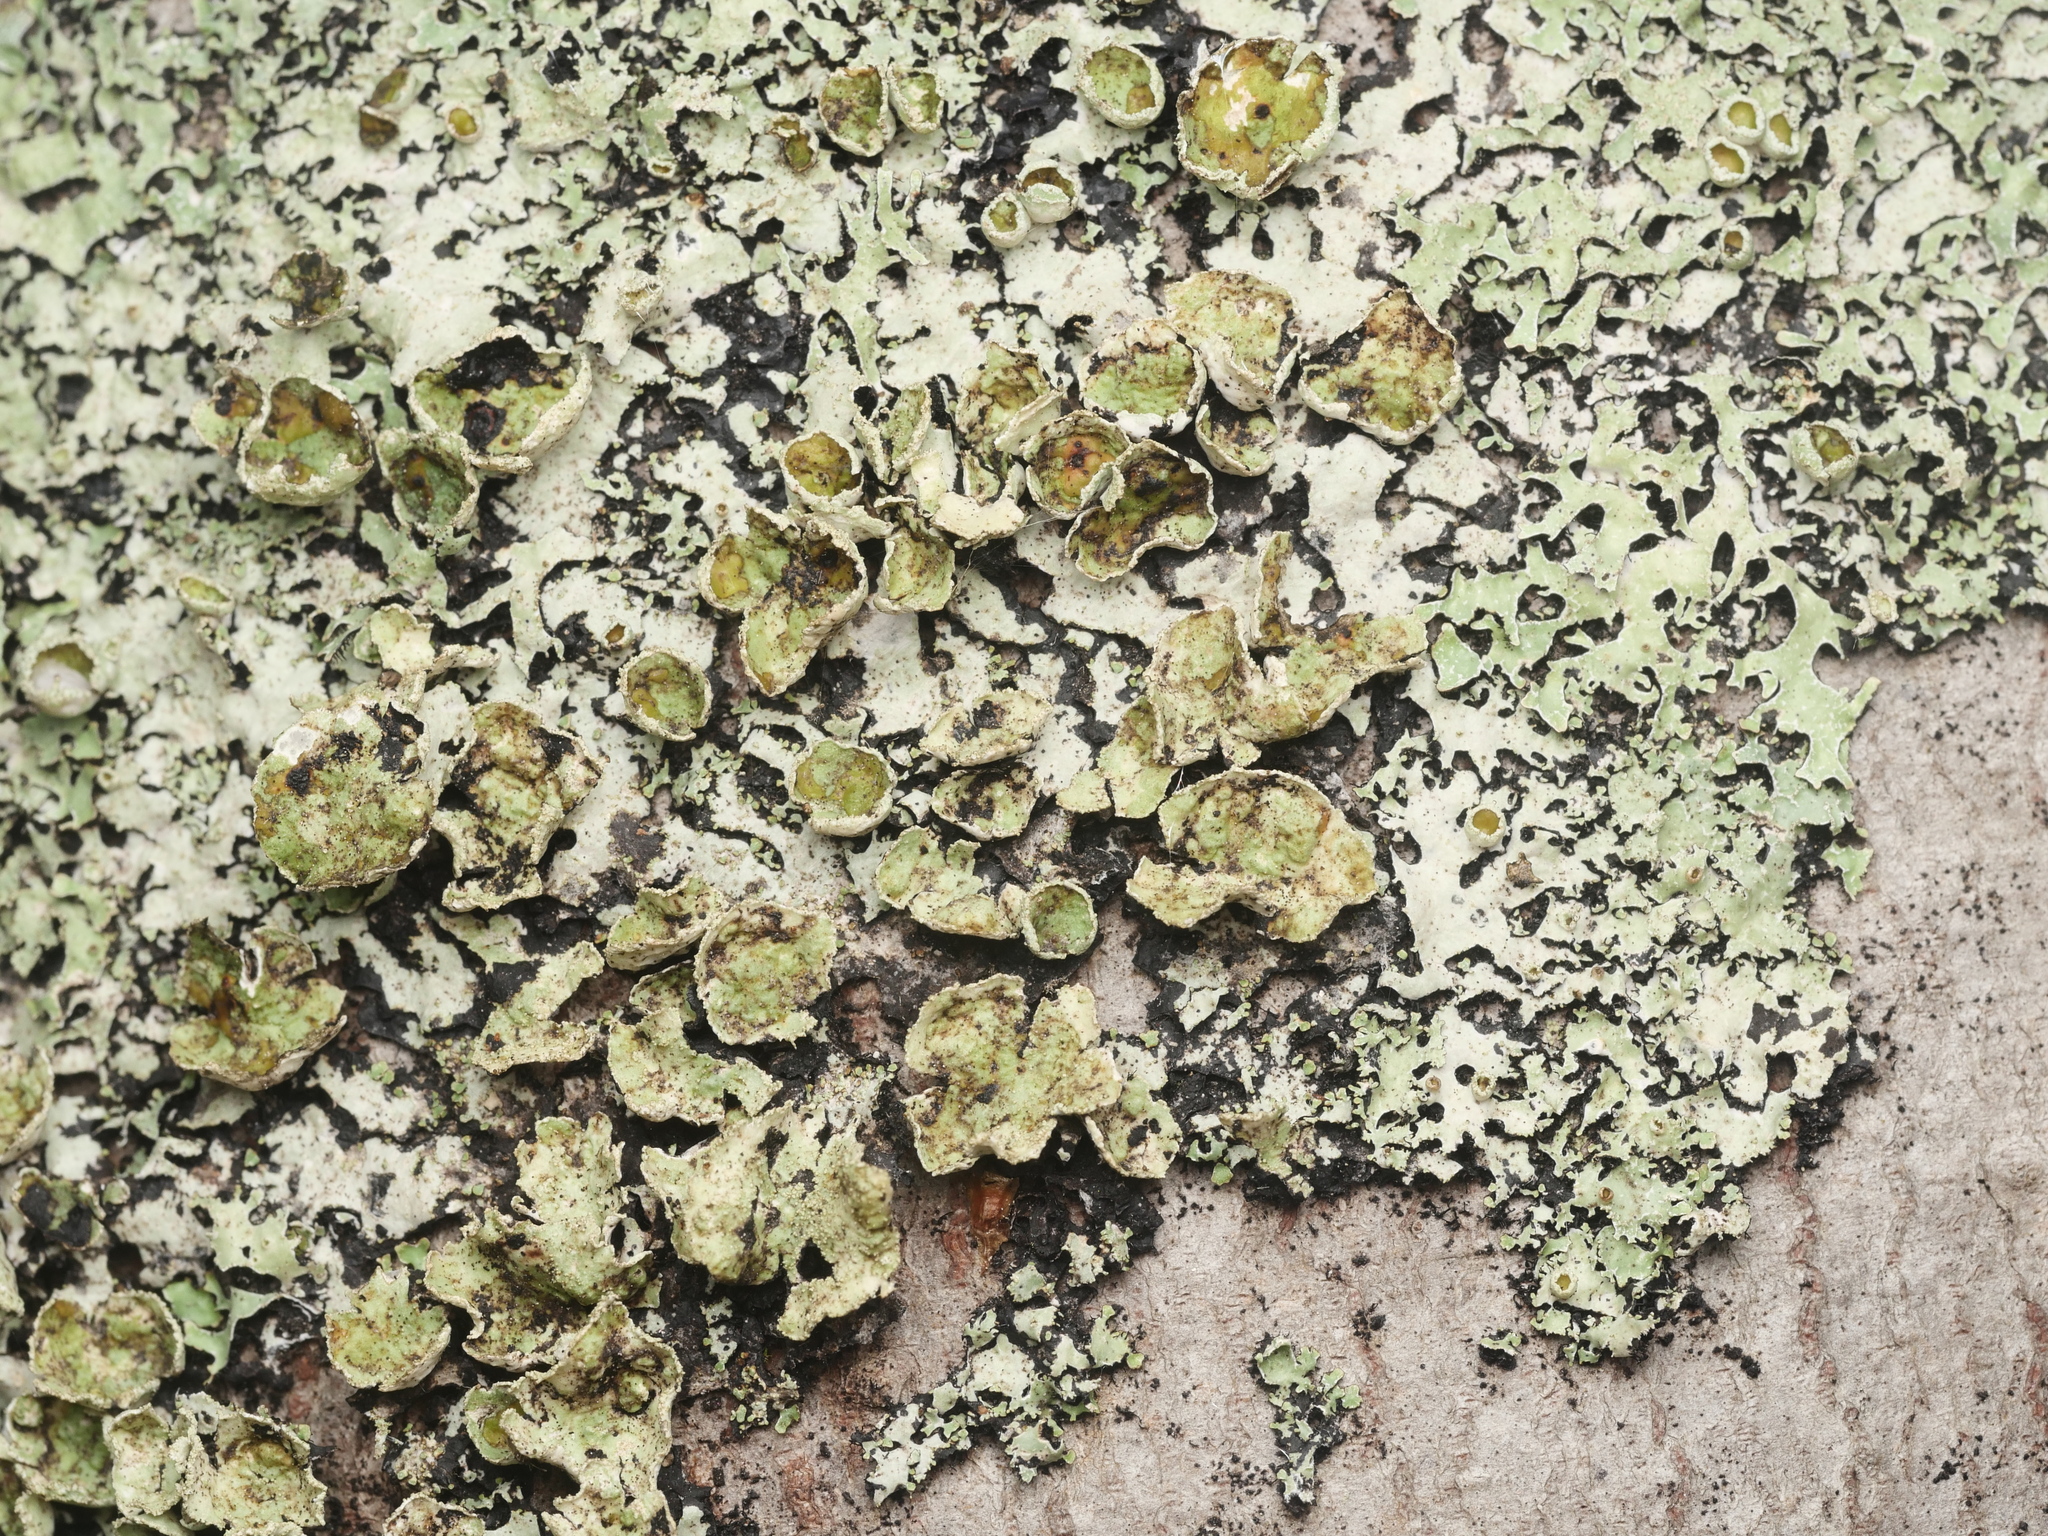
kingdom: Fungi
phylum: Ascomycota
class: Lecanoromycetes
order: Lecanorales
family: Parmeliaceae
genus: Parmelia
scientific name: Parmelia squarrosa
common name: Bottle brush shield lichen
